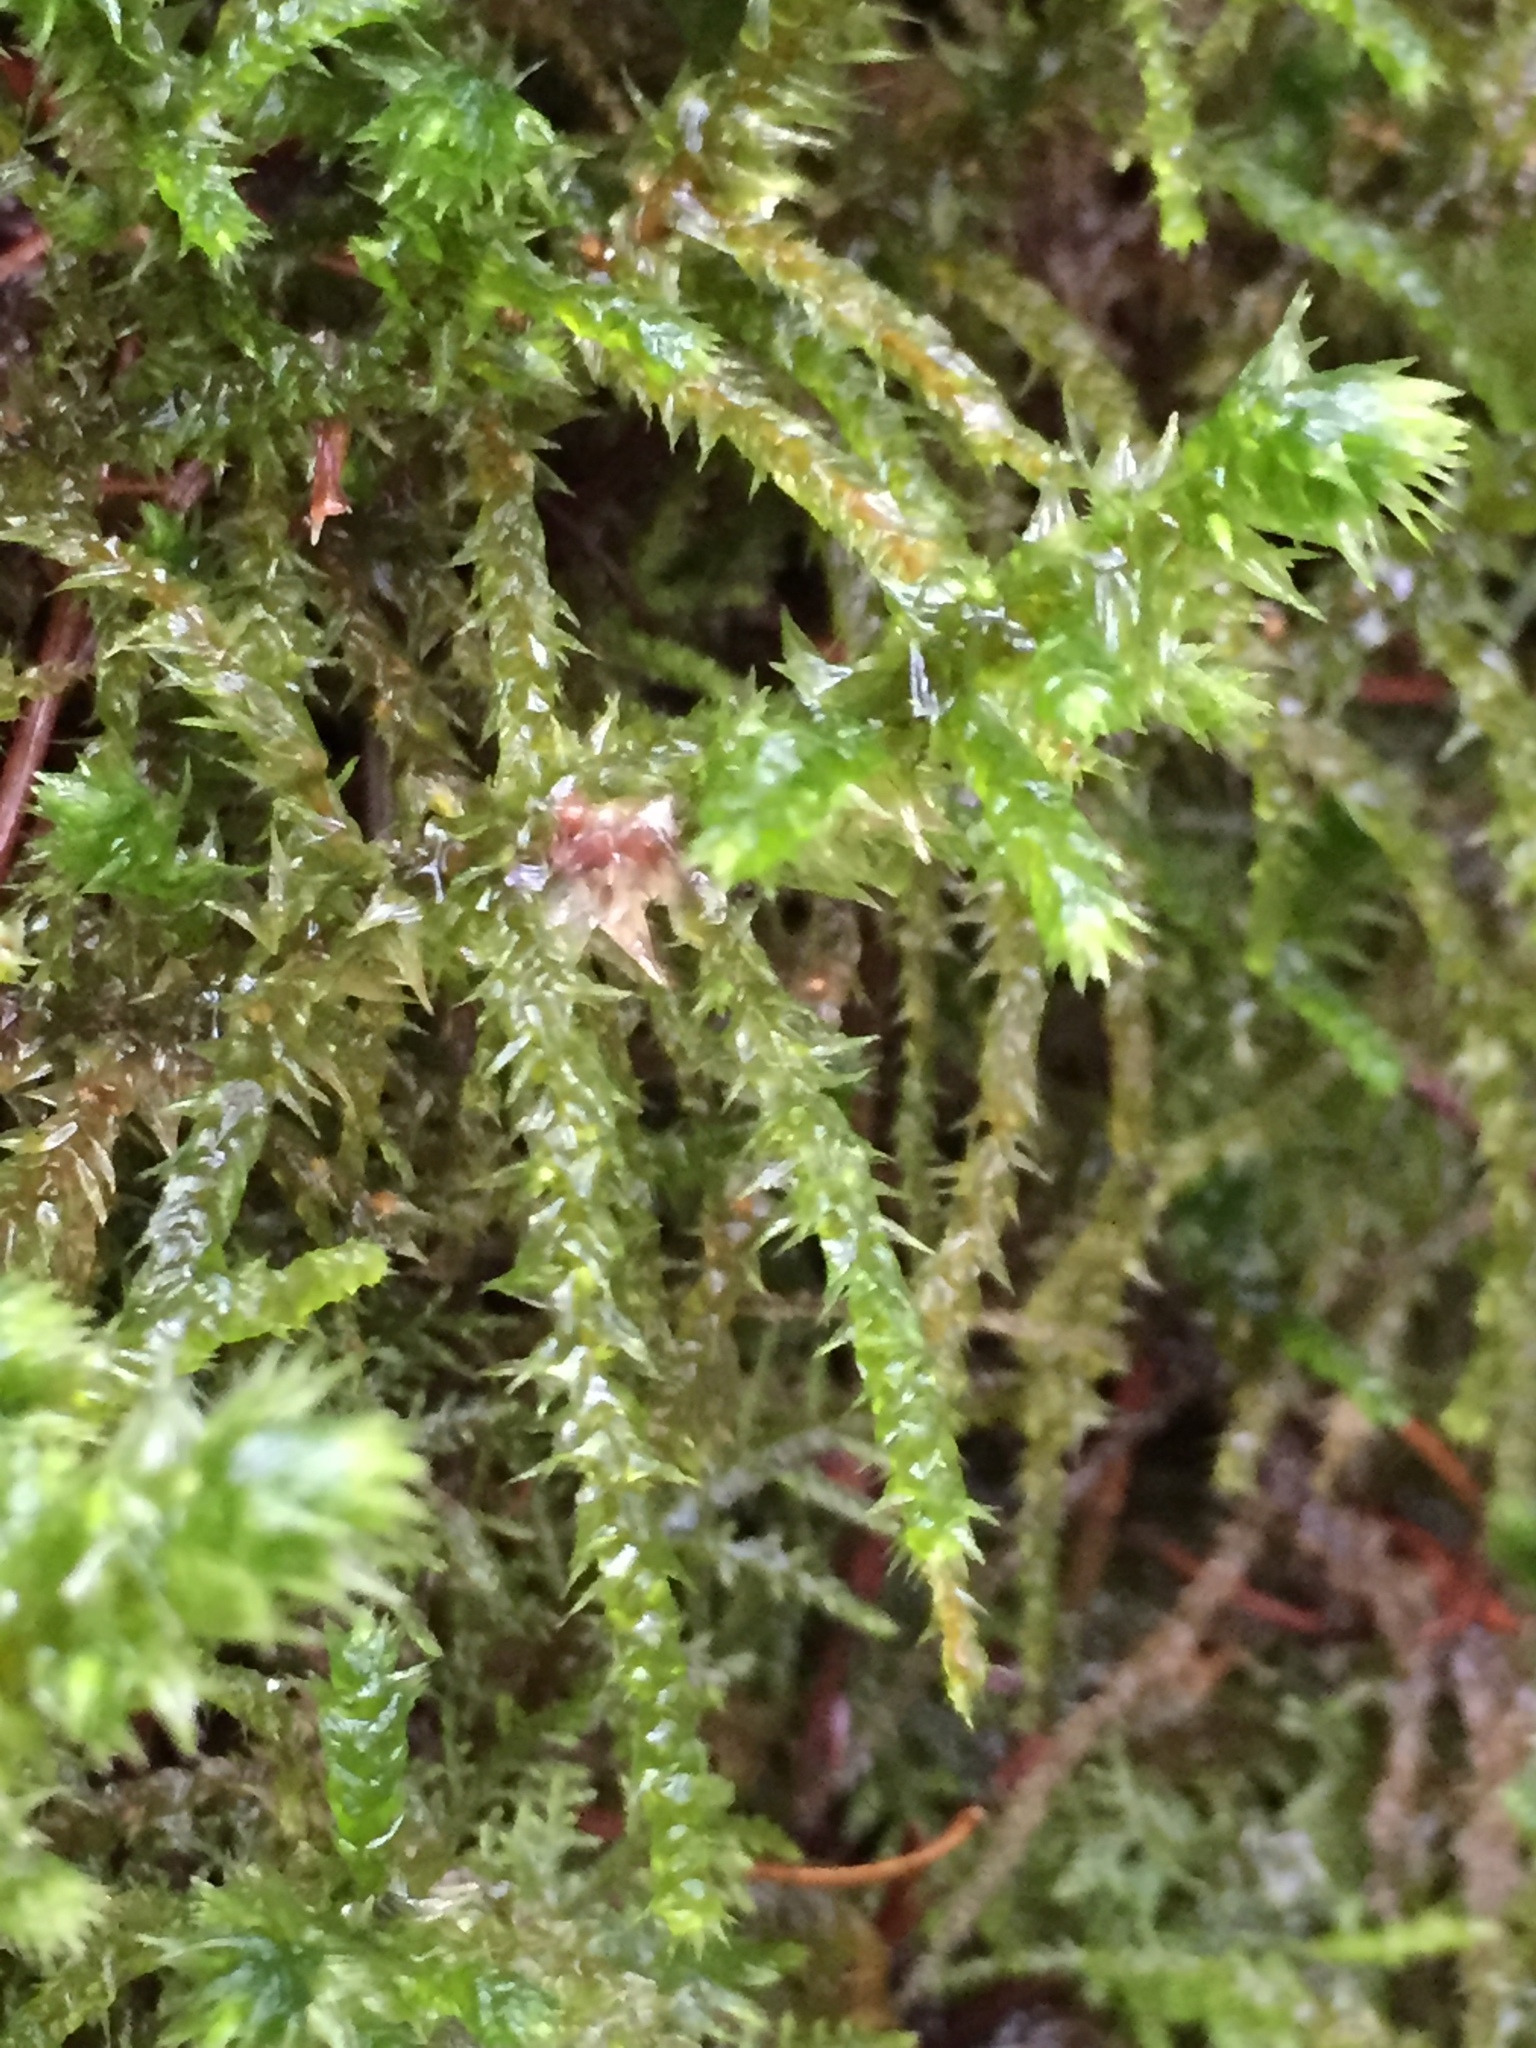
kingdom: Plantae
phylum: Bryophyta
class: Bryopsida
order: Hypnales
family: Hylocomiaceae
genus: Hylocomiadelphus
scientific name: Hylocomiadelphus triquetrus
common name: Rough goose neck moss
